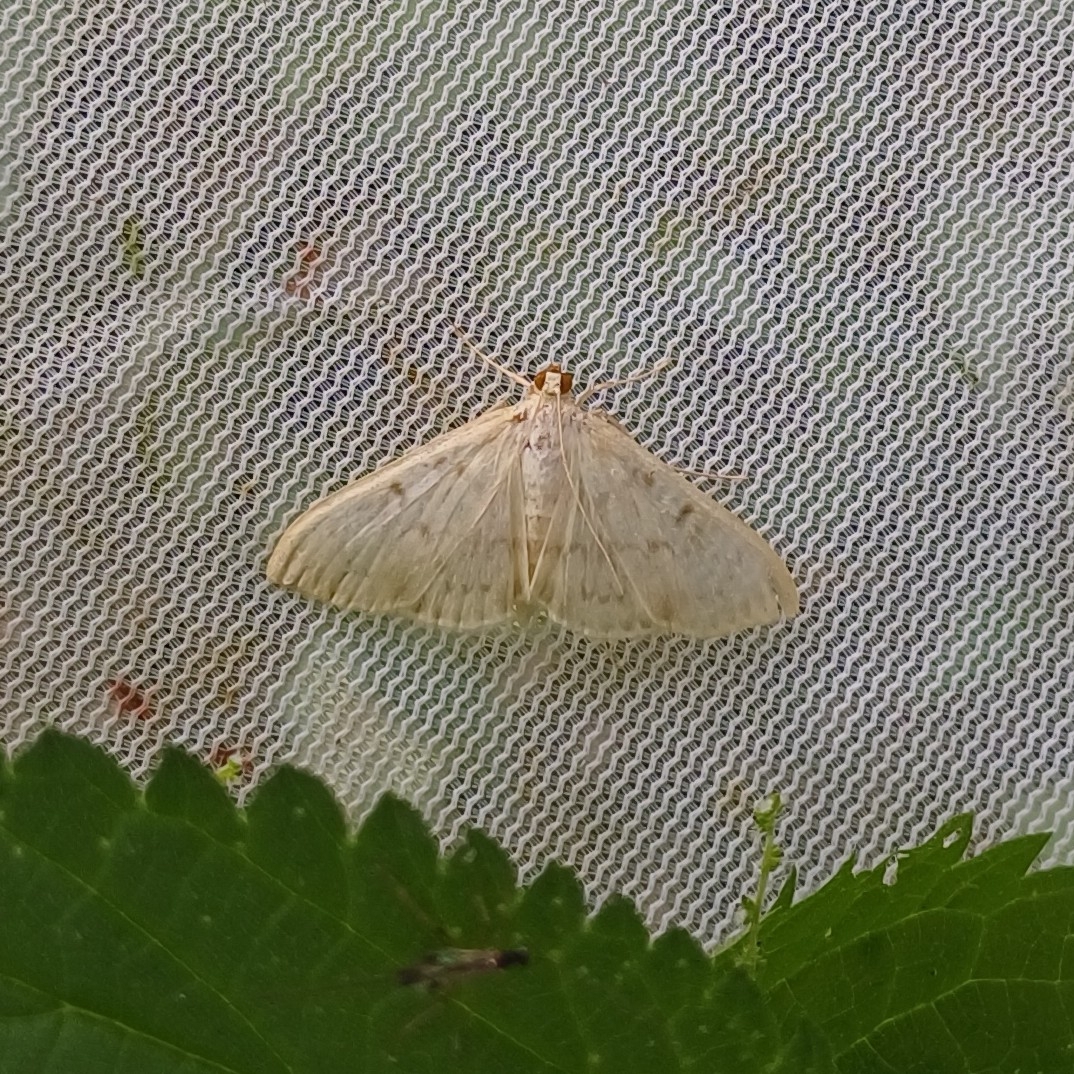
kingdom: Animalia
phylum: Arthropoda
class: Insecta
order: Lepidoptera
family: Crambidae
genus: Patania
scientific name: Patania ruralis
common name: Mother of pearl
